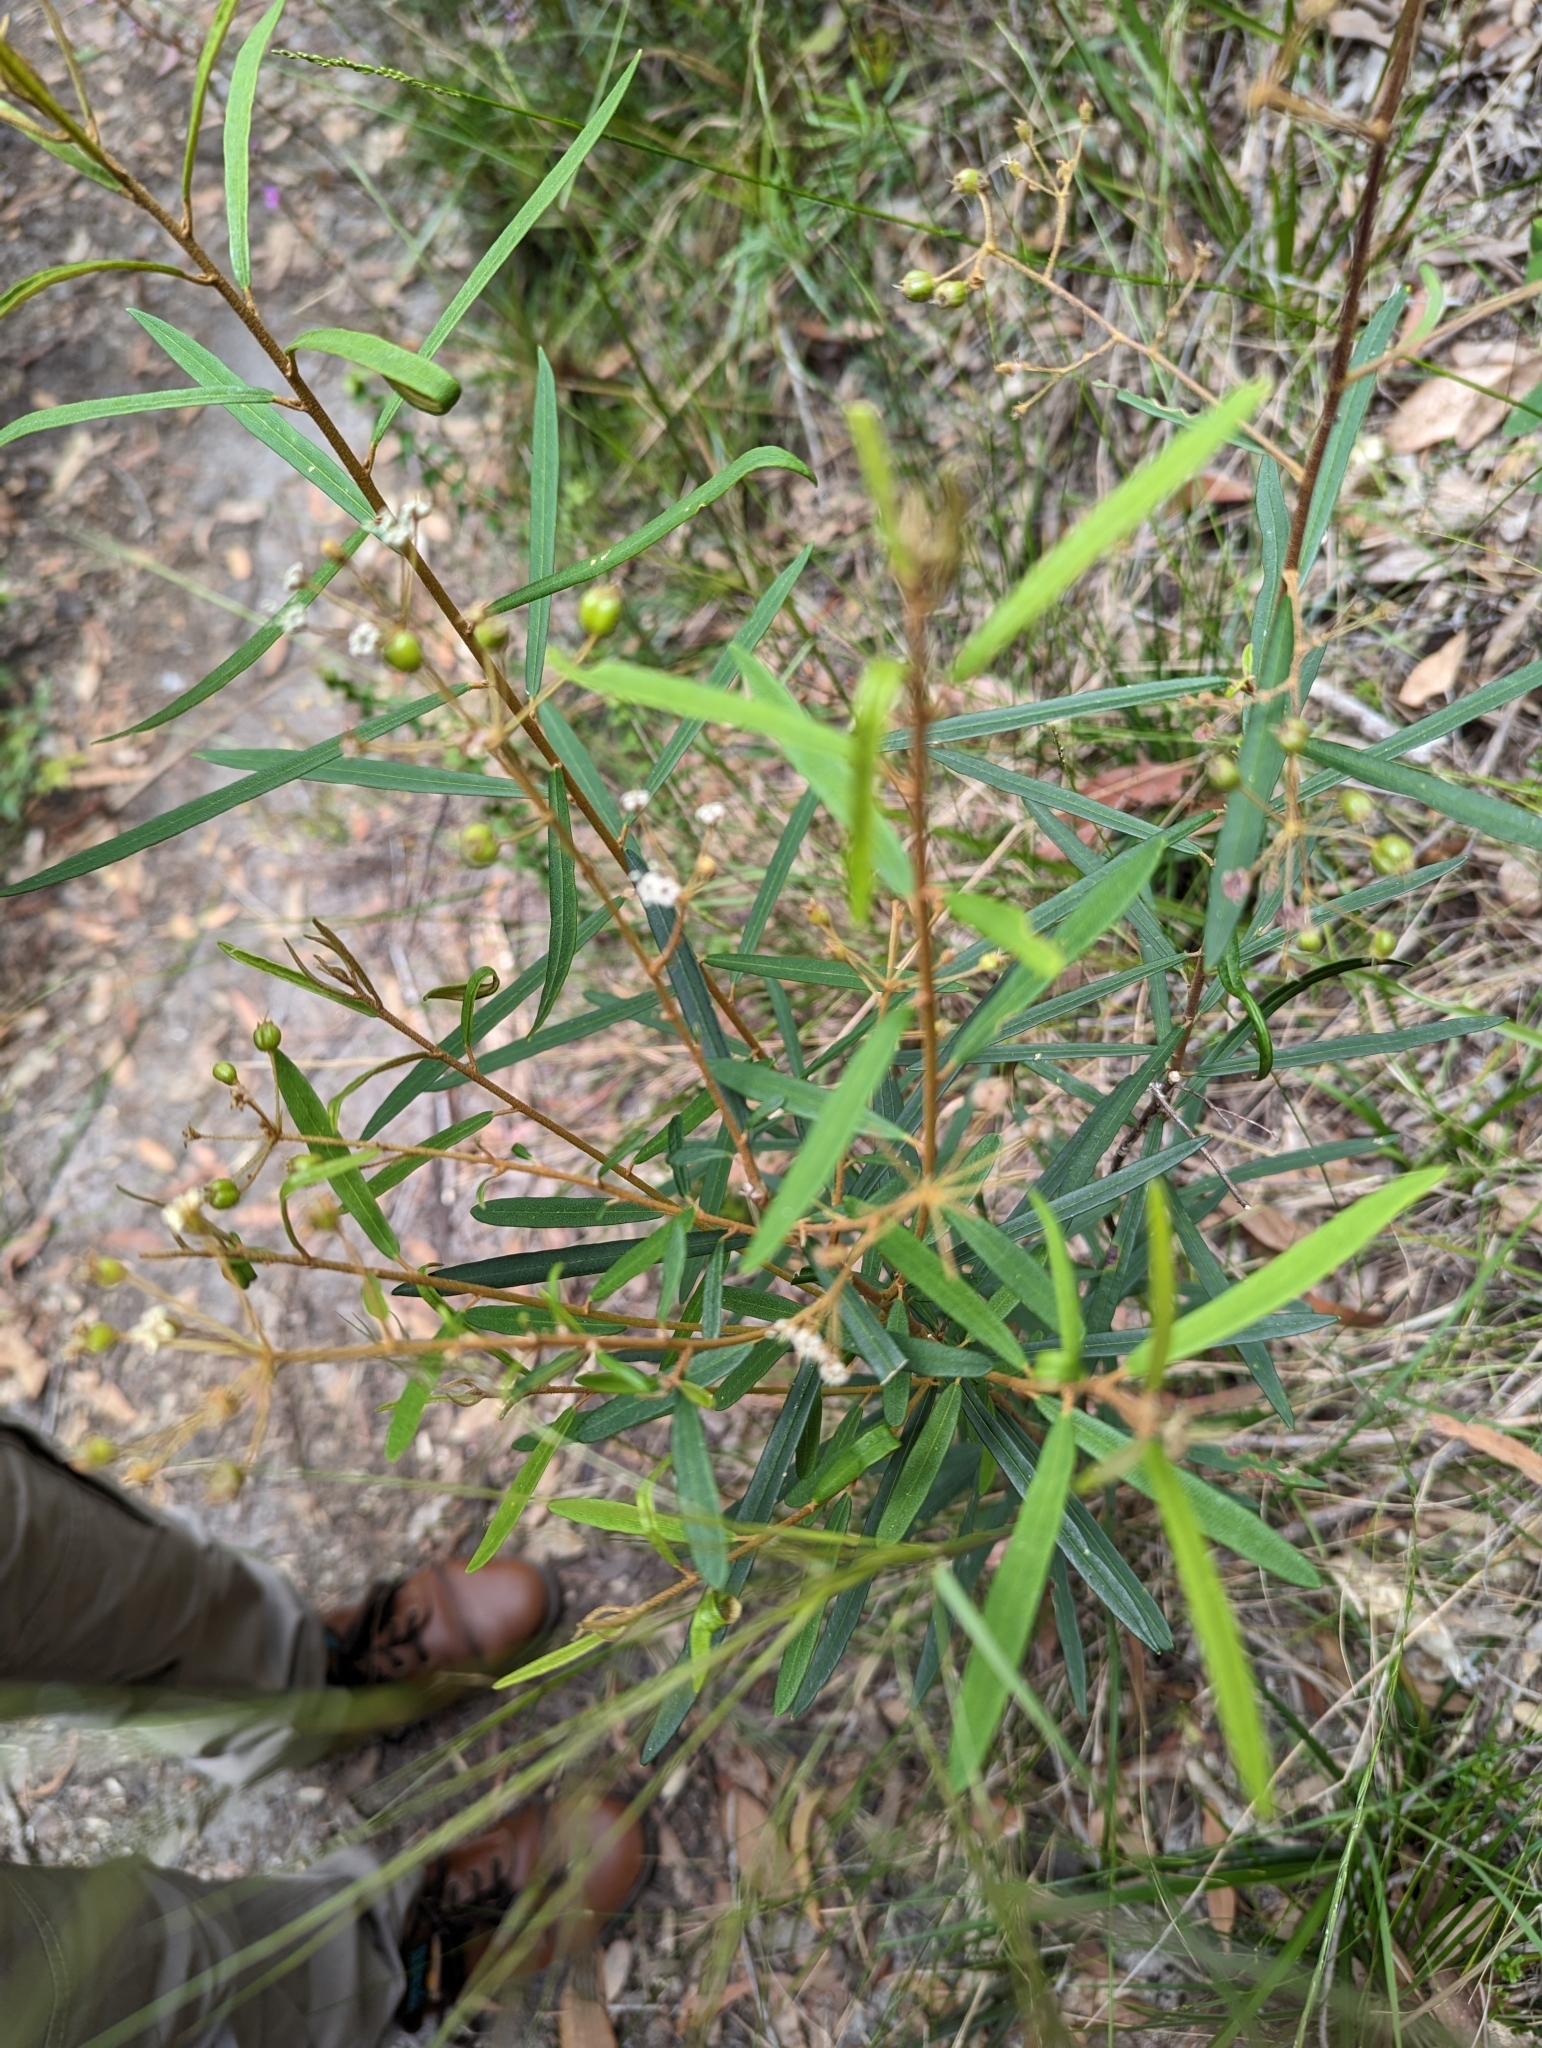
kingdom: Plantae
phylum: Tracheophyta
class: Magnoliopsida
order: Apiales
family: Araliaceae
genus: Astrotricha
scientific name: Astrotricha longifolia
